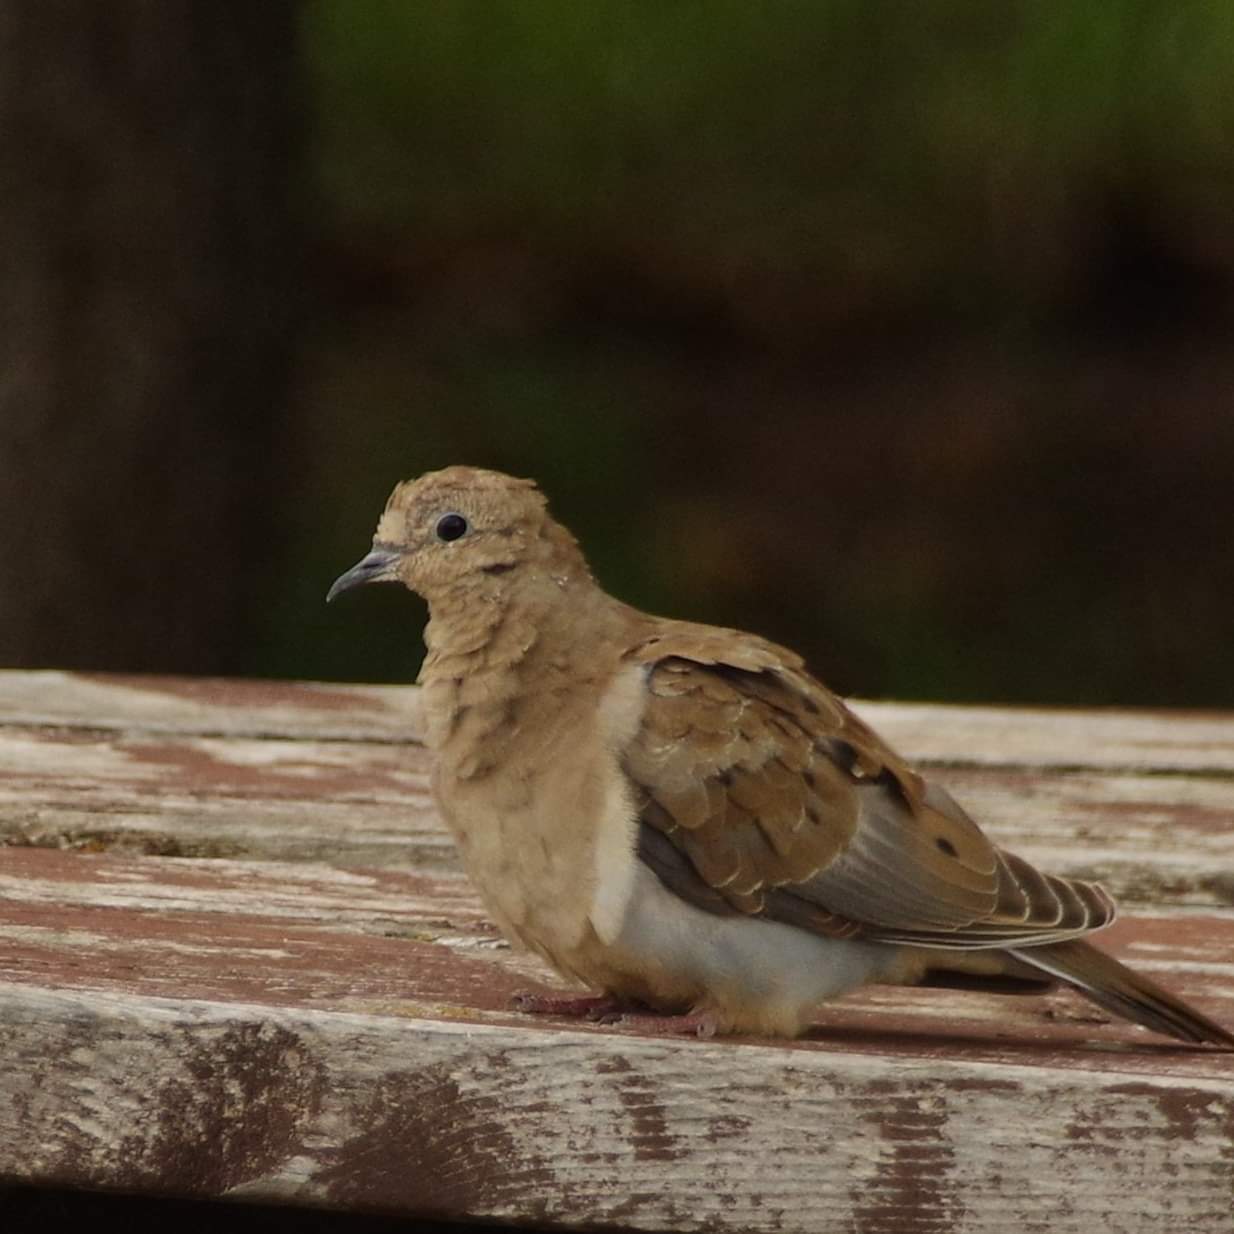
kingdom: Animalia
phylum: Chordata
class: Aves
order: Columbiformes
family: Columbidae
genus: Zenaida
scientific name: Zenaida macroura
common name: Mourning dove
